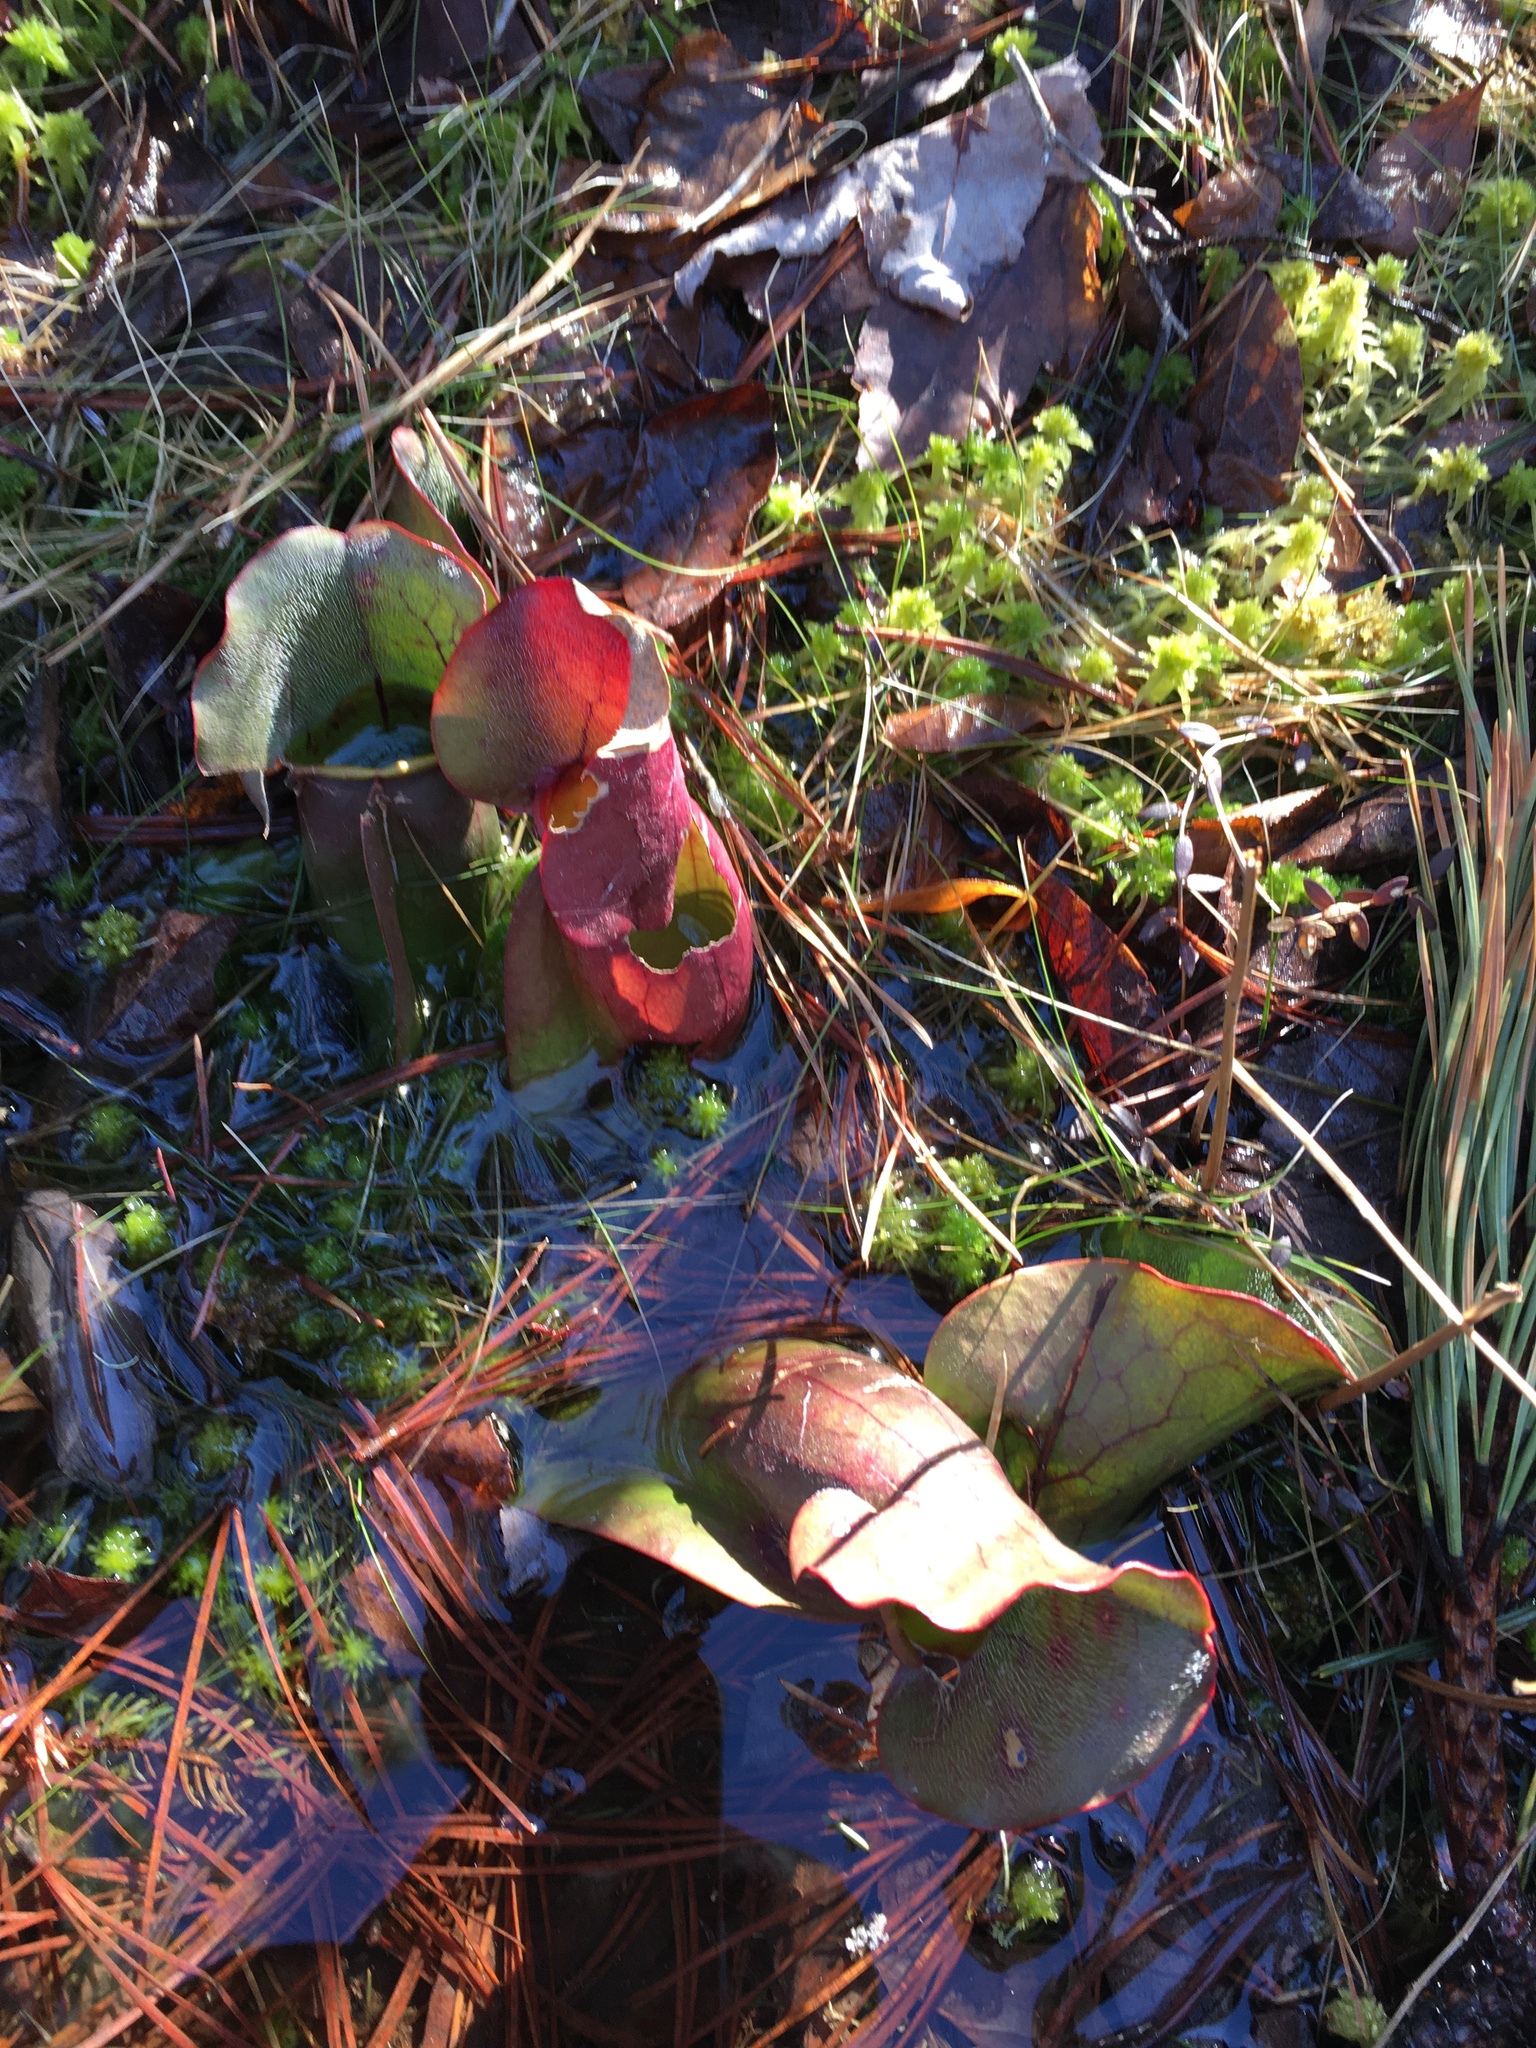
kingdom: Plantae
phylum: Tracheophyta
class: Magnoliopsida
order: Ericales
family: Sarraceniaceae
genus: Sarracenia
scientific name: Sarracenia purpurea
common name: Pitcherplant
